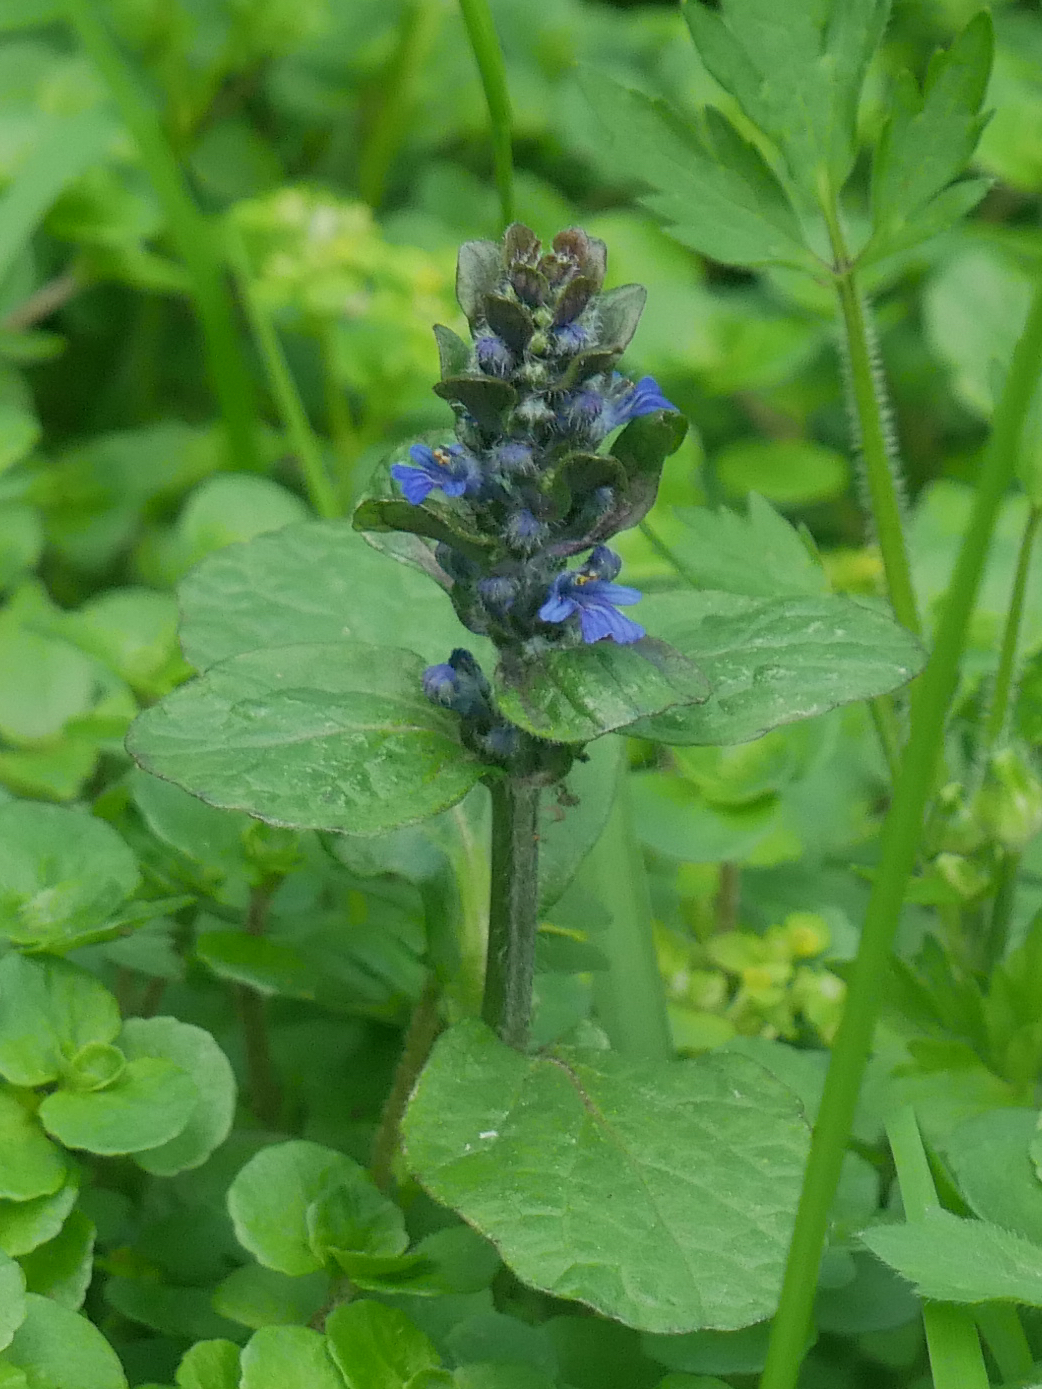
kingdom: Plantae
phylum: Tracheophyta
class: Magnoliopsida
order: Lamiales
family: Lamiaceae
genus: Ajuga
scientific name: Ajuga reptans
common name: Bugle
